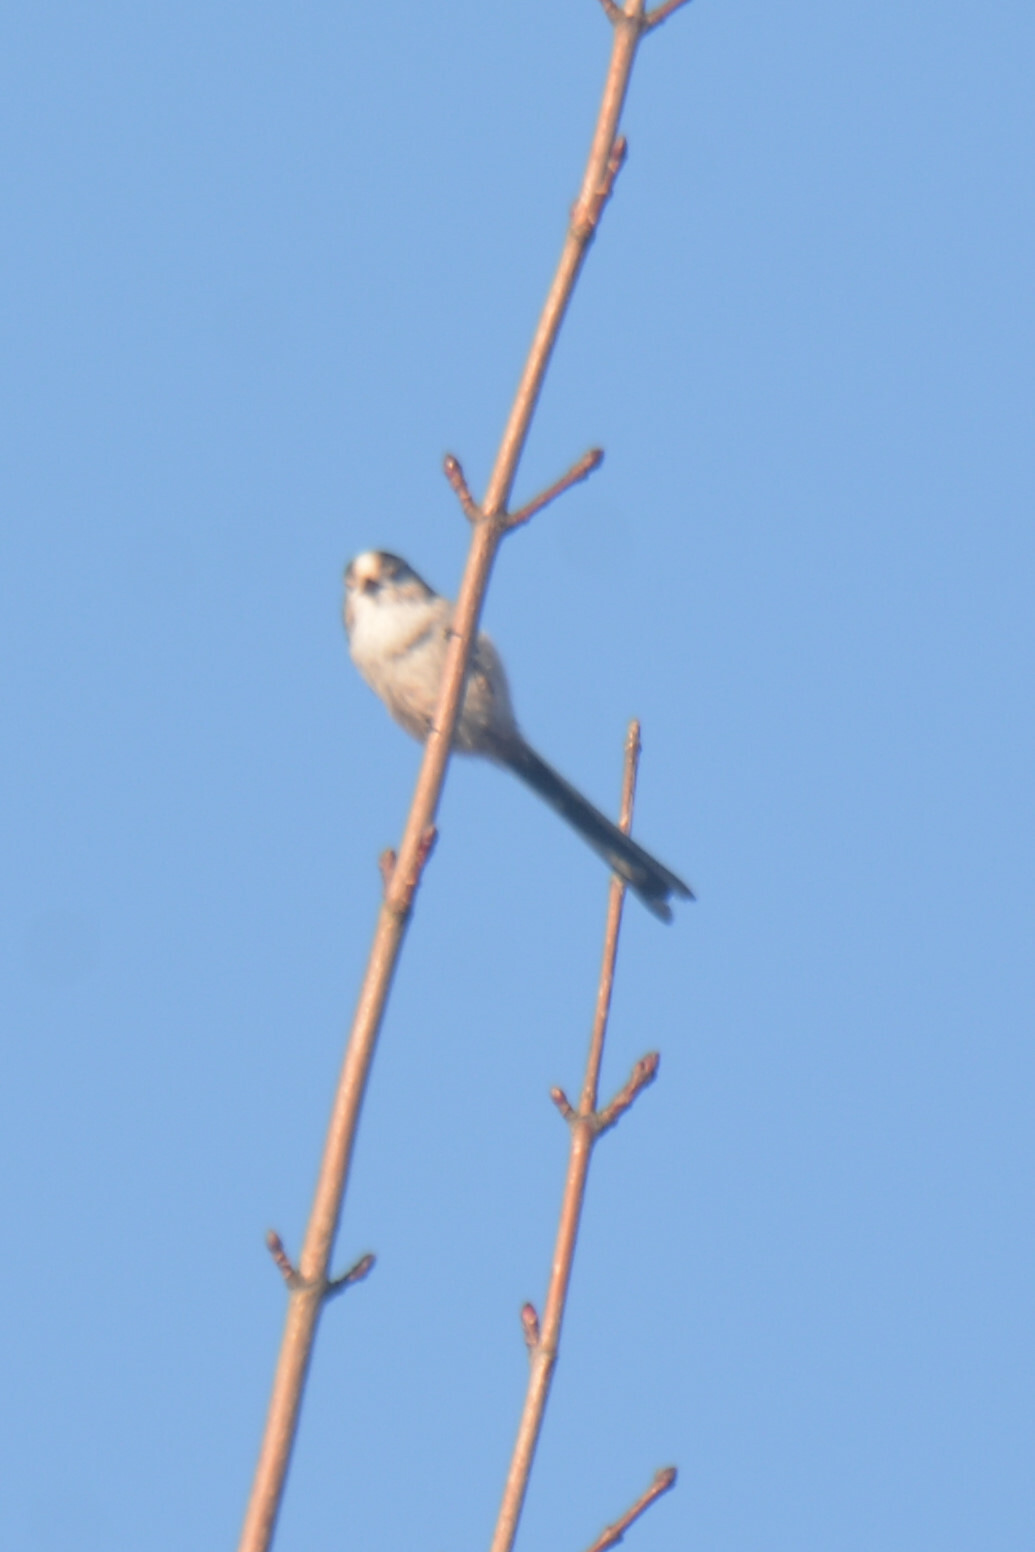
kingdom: Animalia
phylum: Chordata
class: Aves
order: Passeriformes
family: Aegithalidae
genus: Aegithalos
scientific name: Aegithalos caudatus
